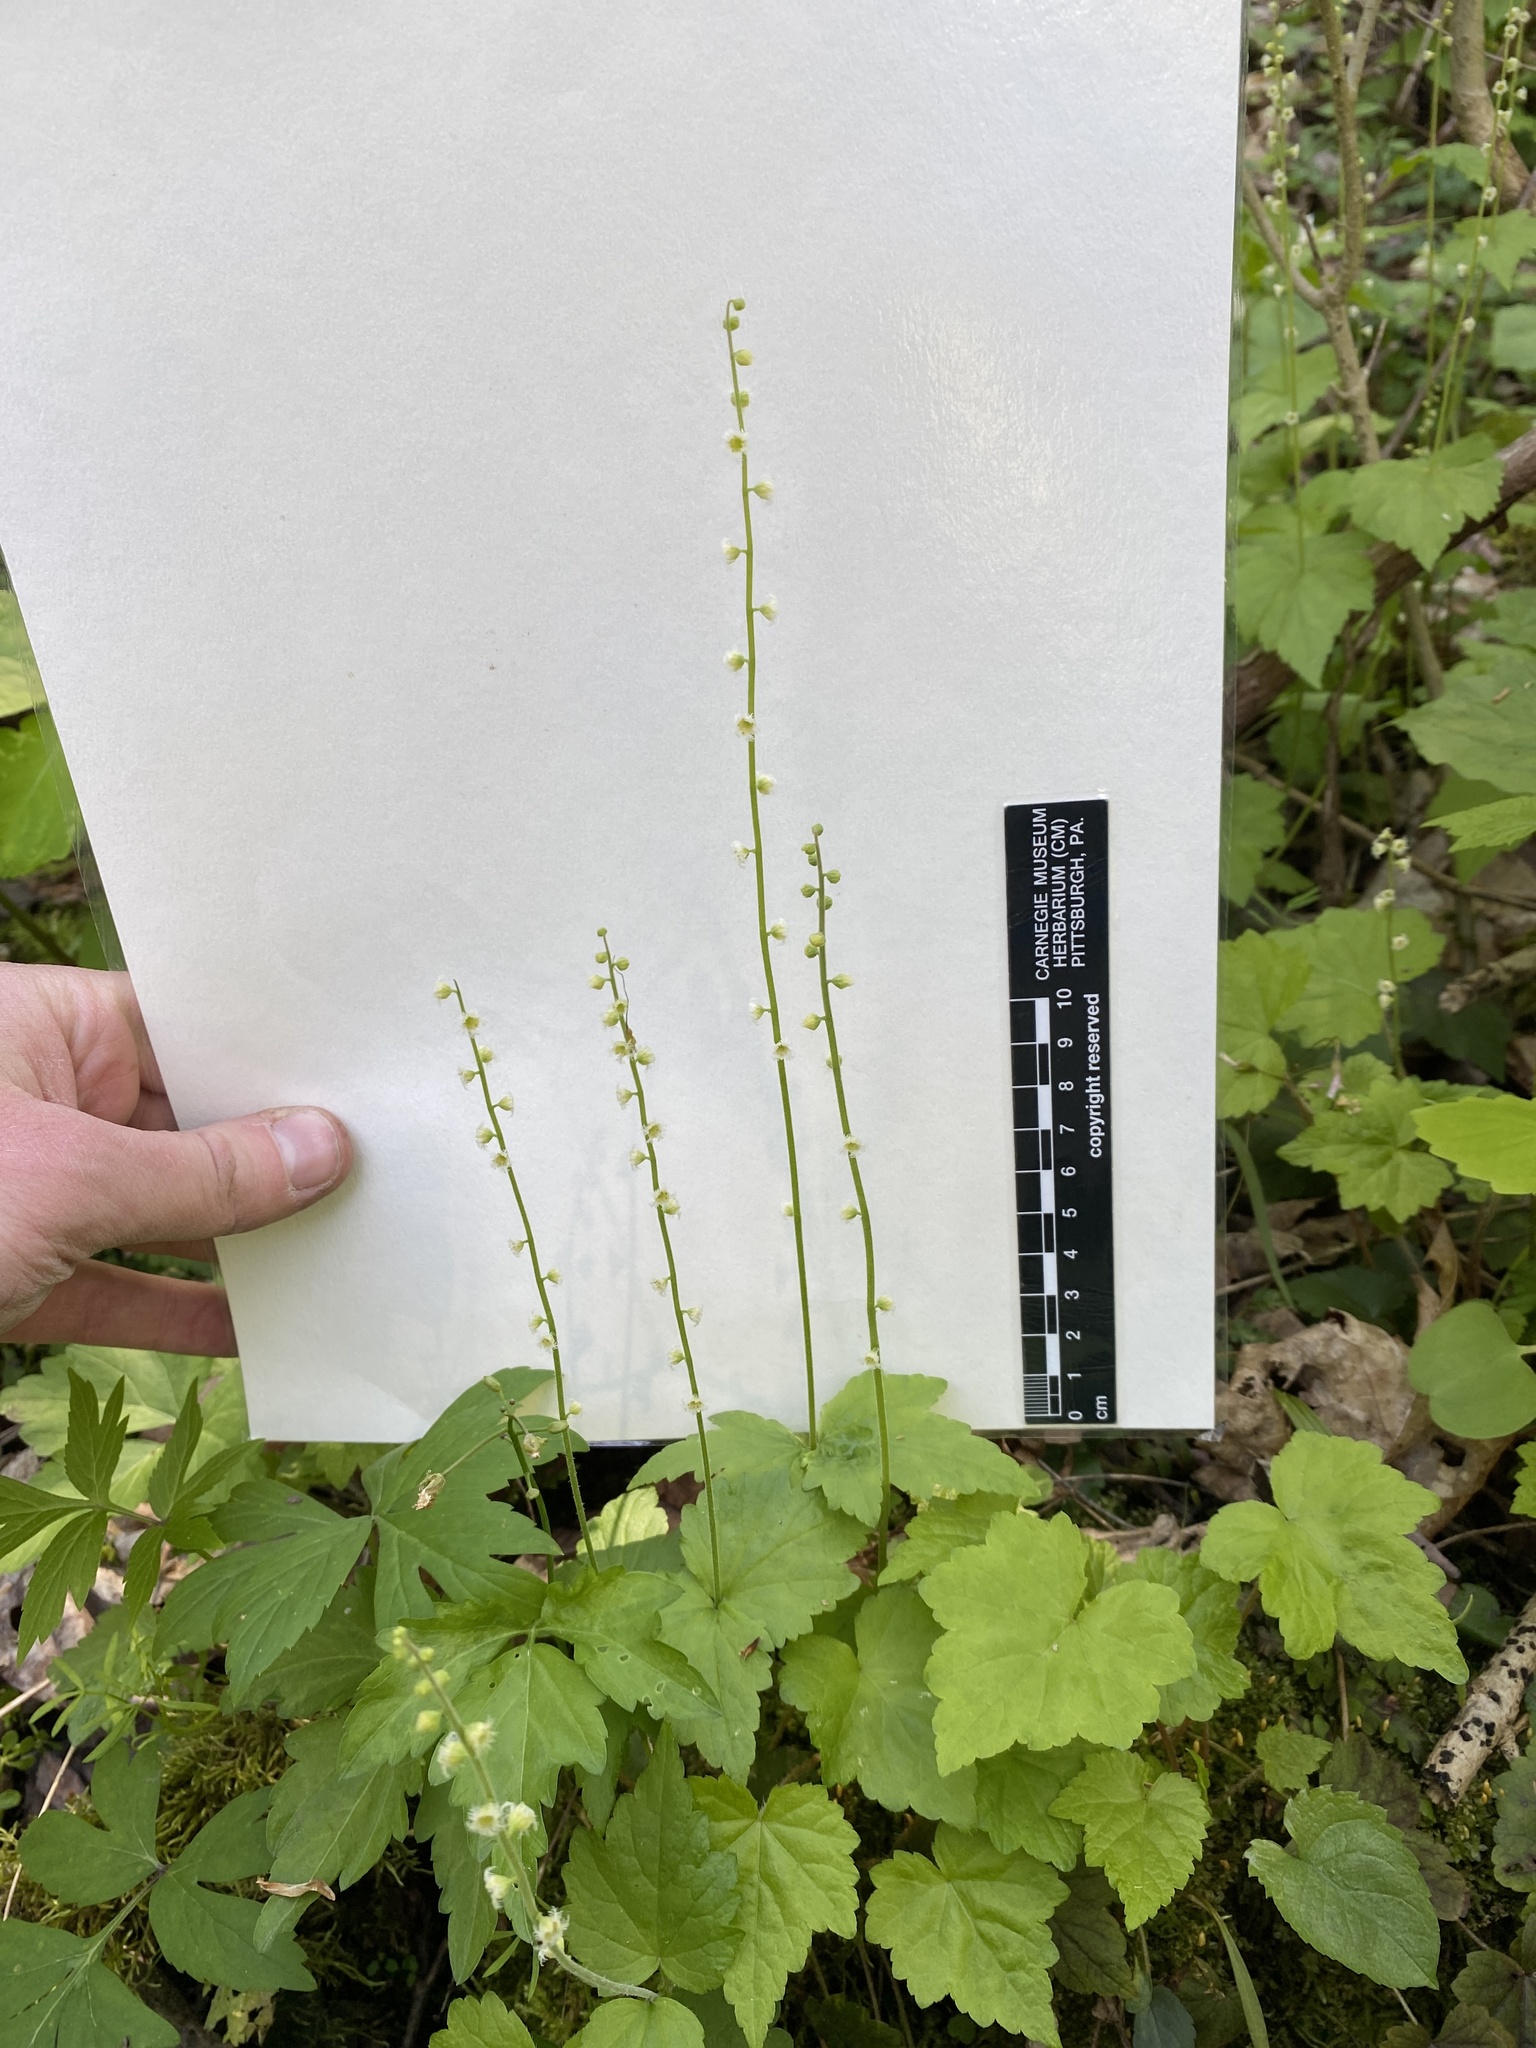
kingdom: Plantae
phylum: Tracheophyta
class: Magnoliopsida
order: Saxifragales
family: Saxifragaceae
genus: Mitella
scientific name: Mitella diphylla
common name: Coolwort
